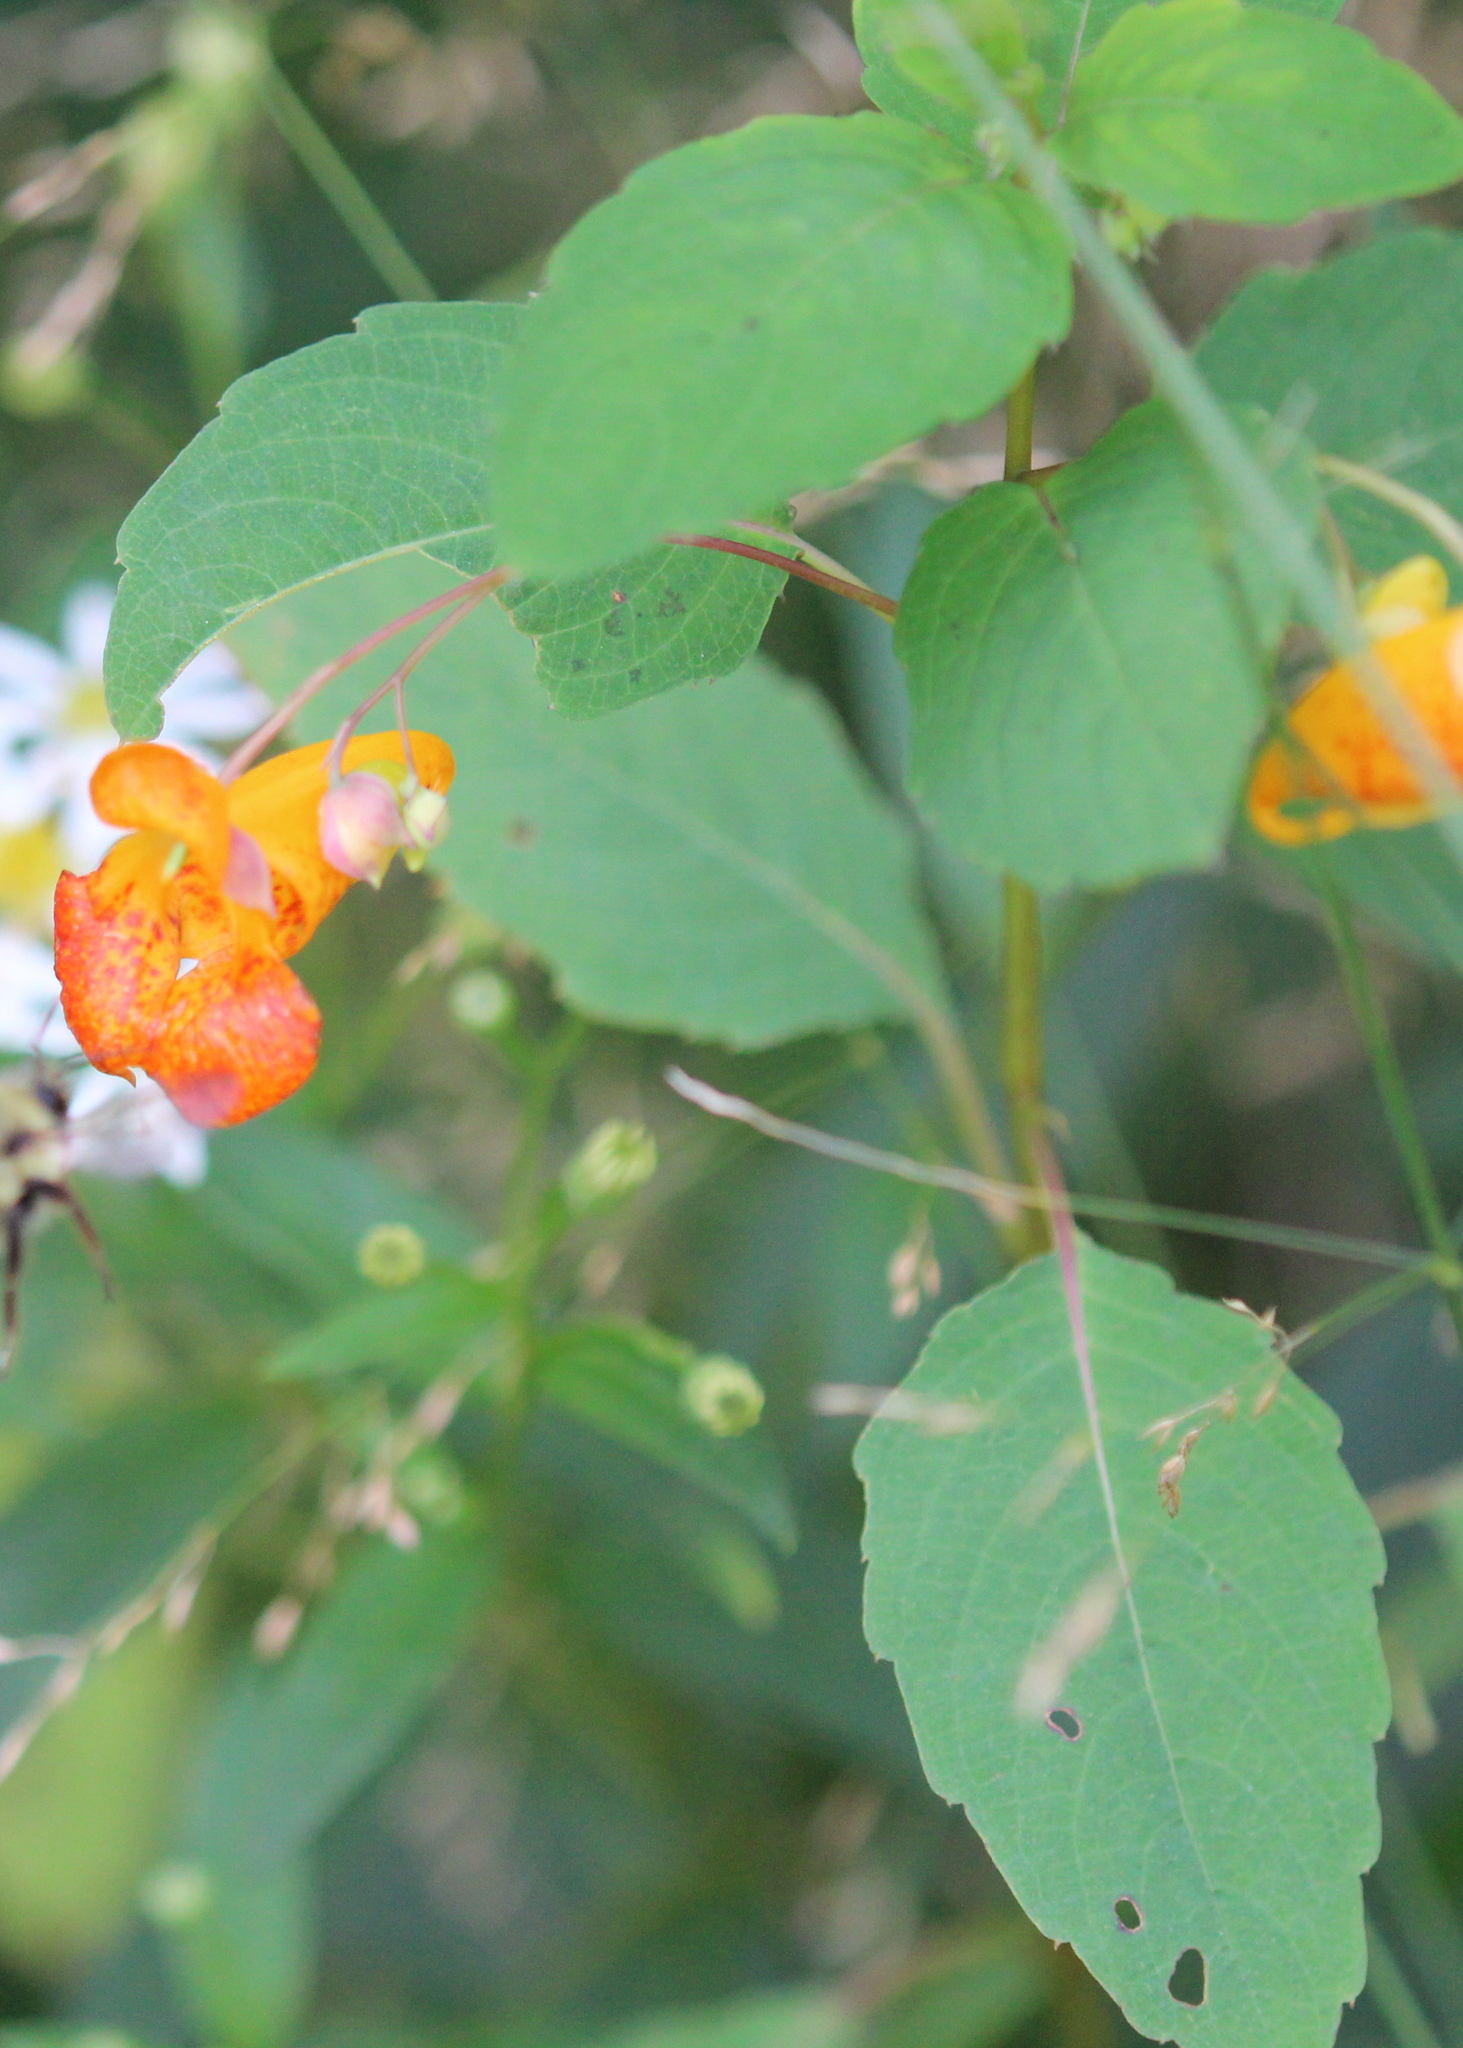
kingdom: Plantae
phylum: Tracheophyta
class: Magnoliopsida
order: Ericales
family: Balsaminaceae
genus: Impatiens
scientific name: Impatiens capensis
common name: Orange balsam
